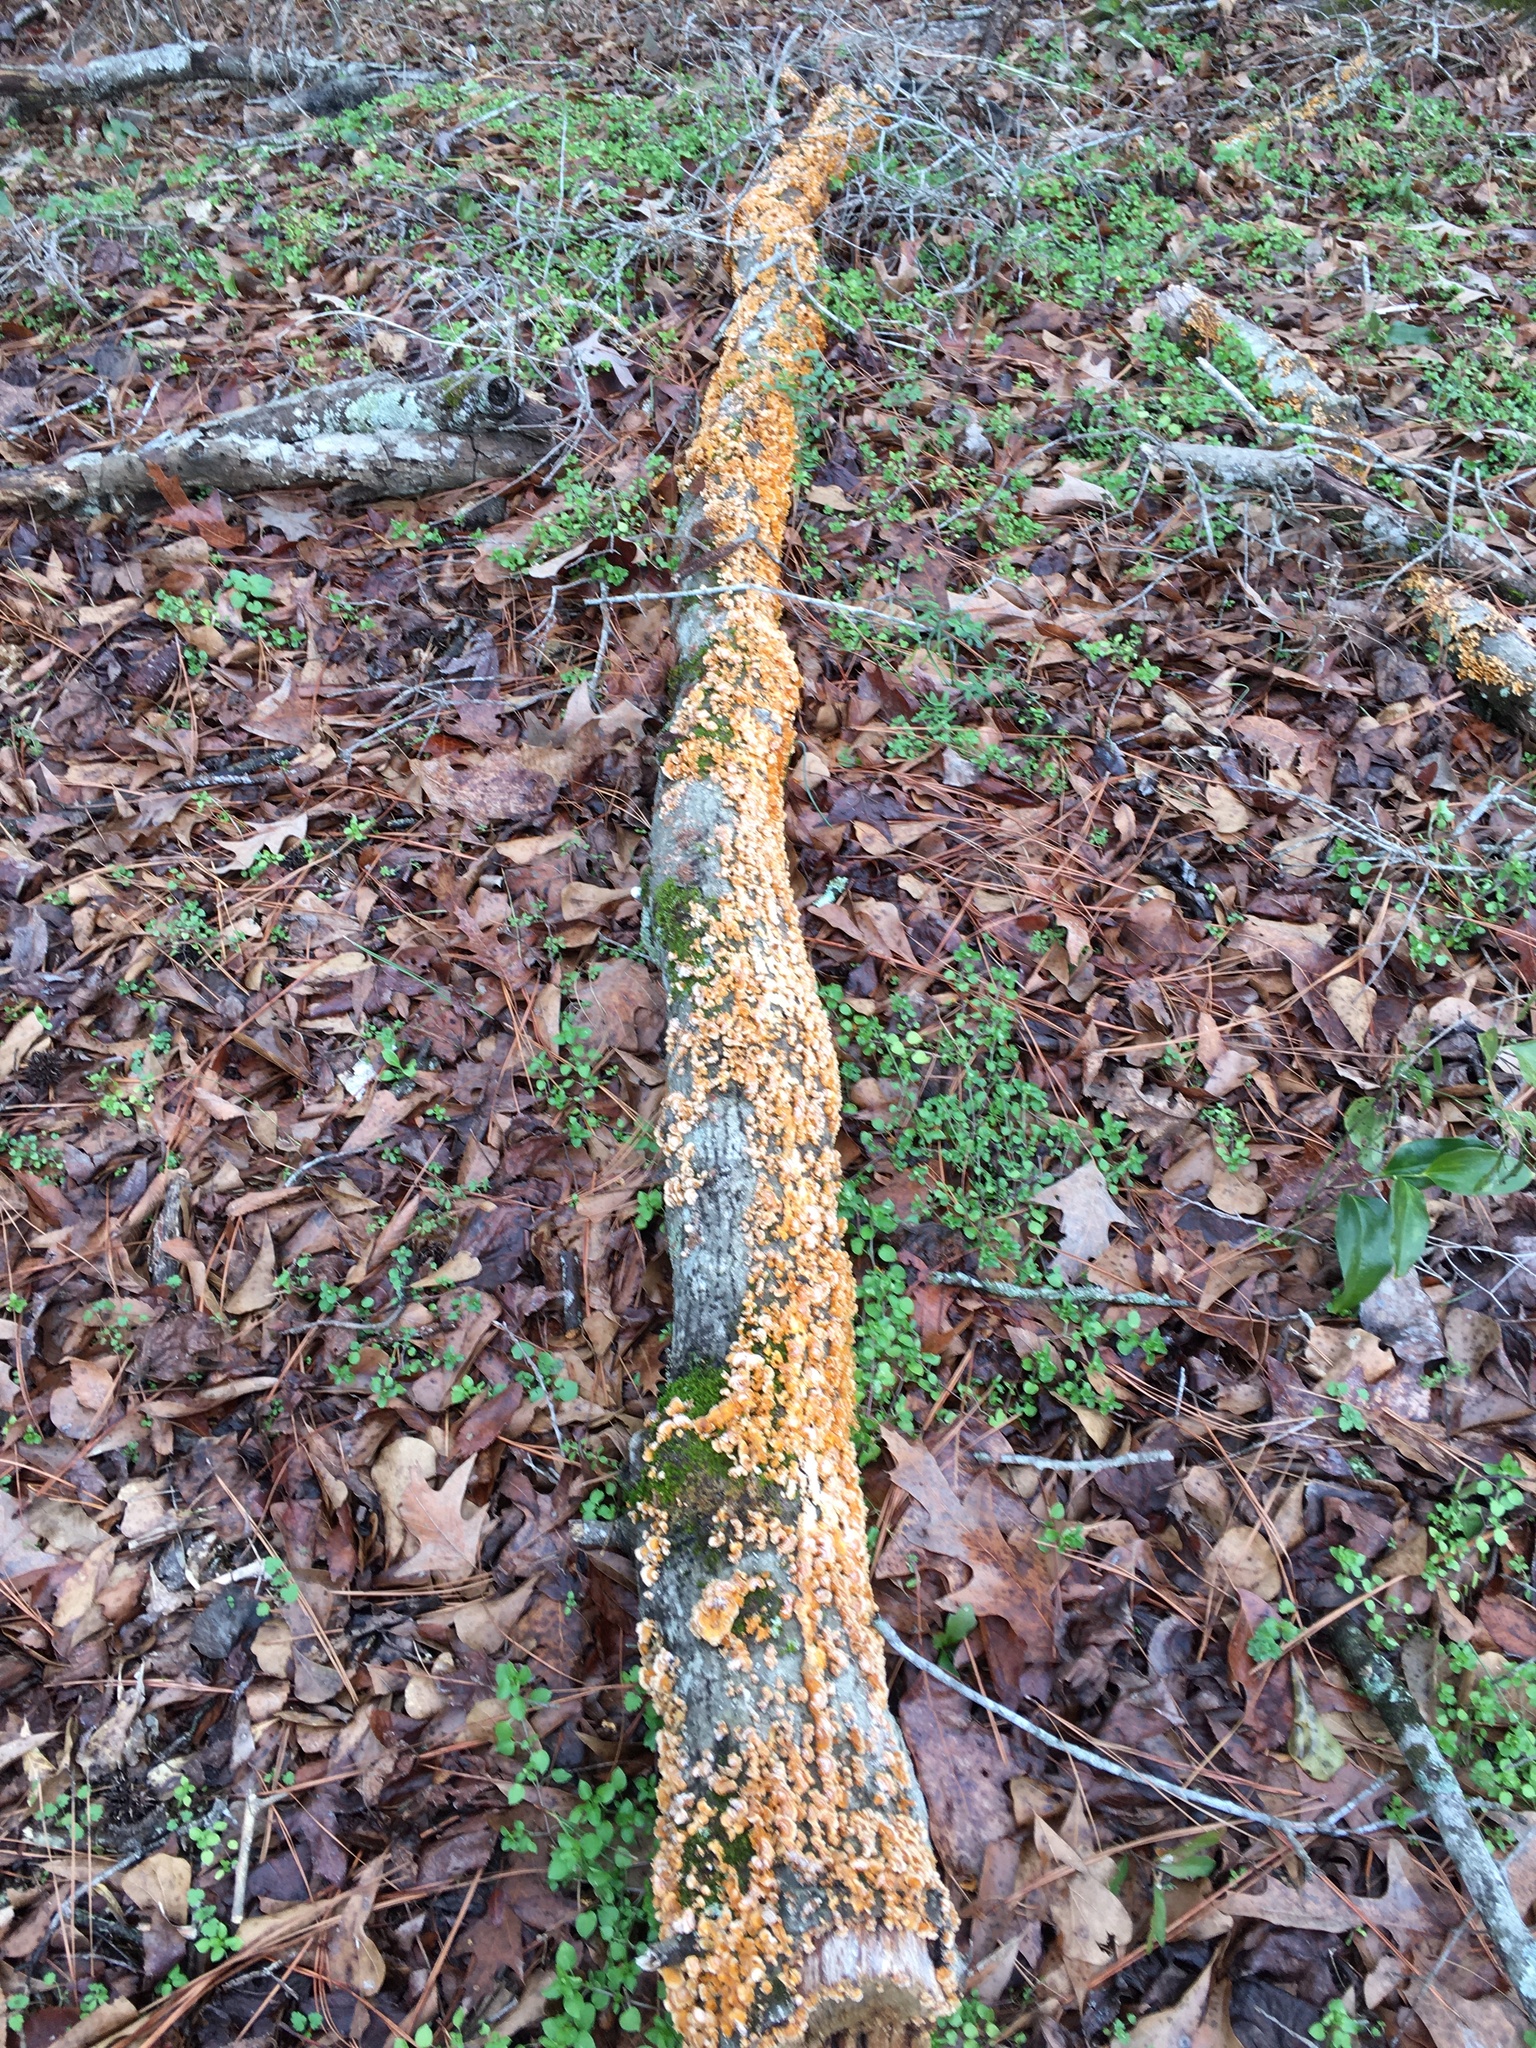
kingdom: Fungi
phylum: Basidiomycota
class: Agaricomycetes
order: Russulales
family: Stereaceae
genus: Stereum
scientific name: Stereum complicatum
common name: Crowded parchment
